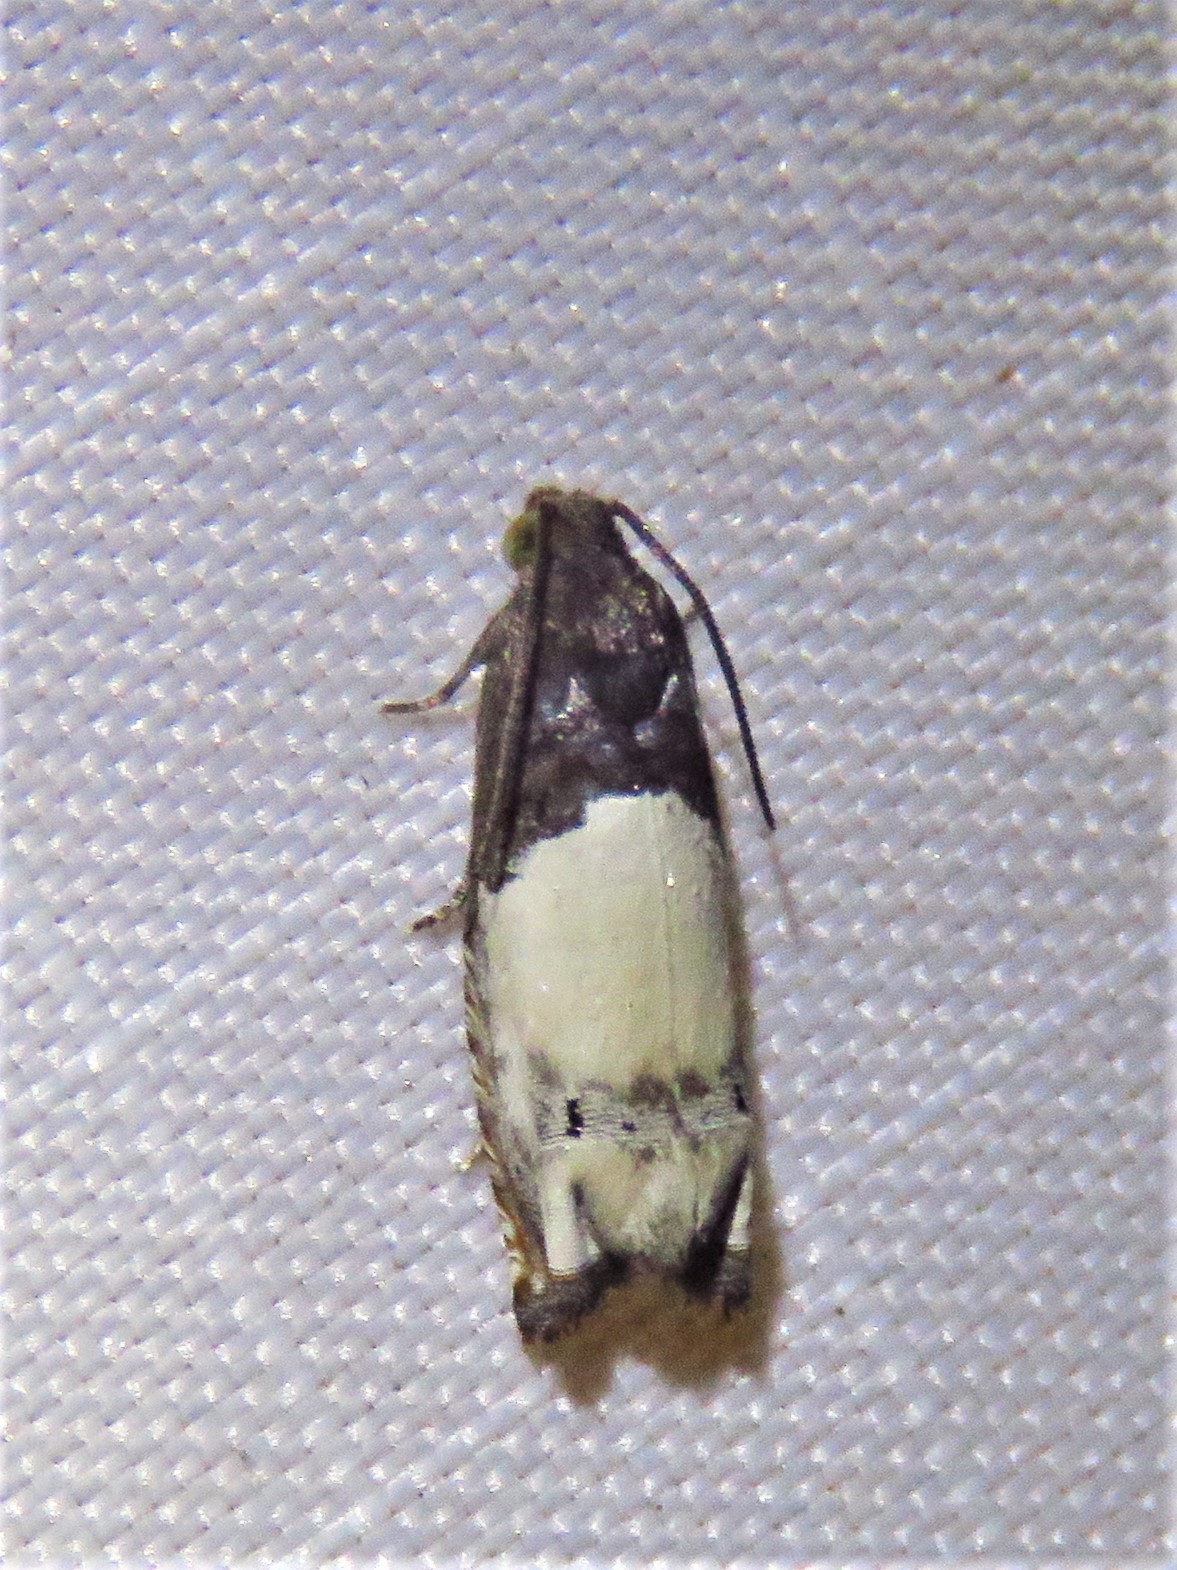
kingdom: Animalia
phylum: Arthropoda
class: Insecta
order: Lepidoptera
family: Tortricidae
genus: Epiblema
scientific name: Epiblema scudderiana
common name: Goldenrod gall moth
